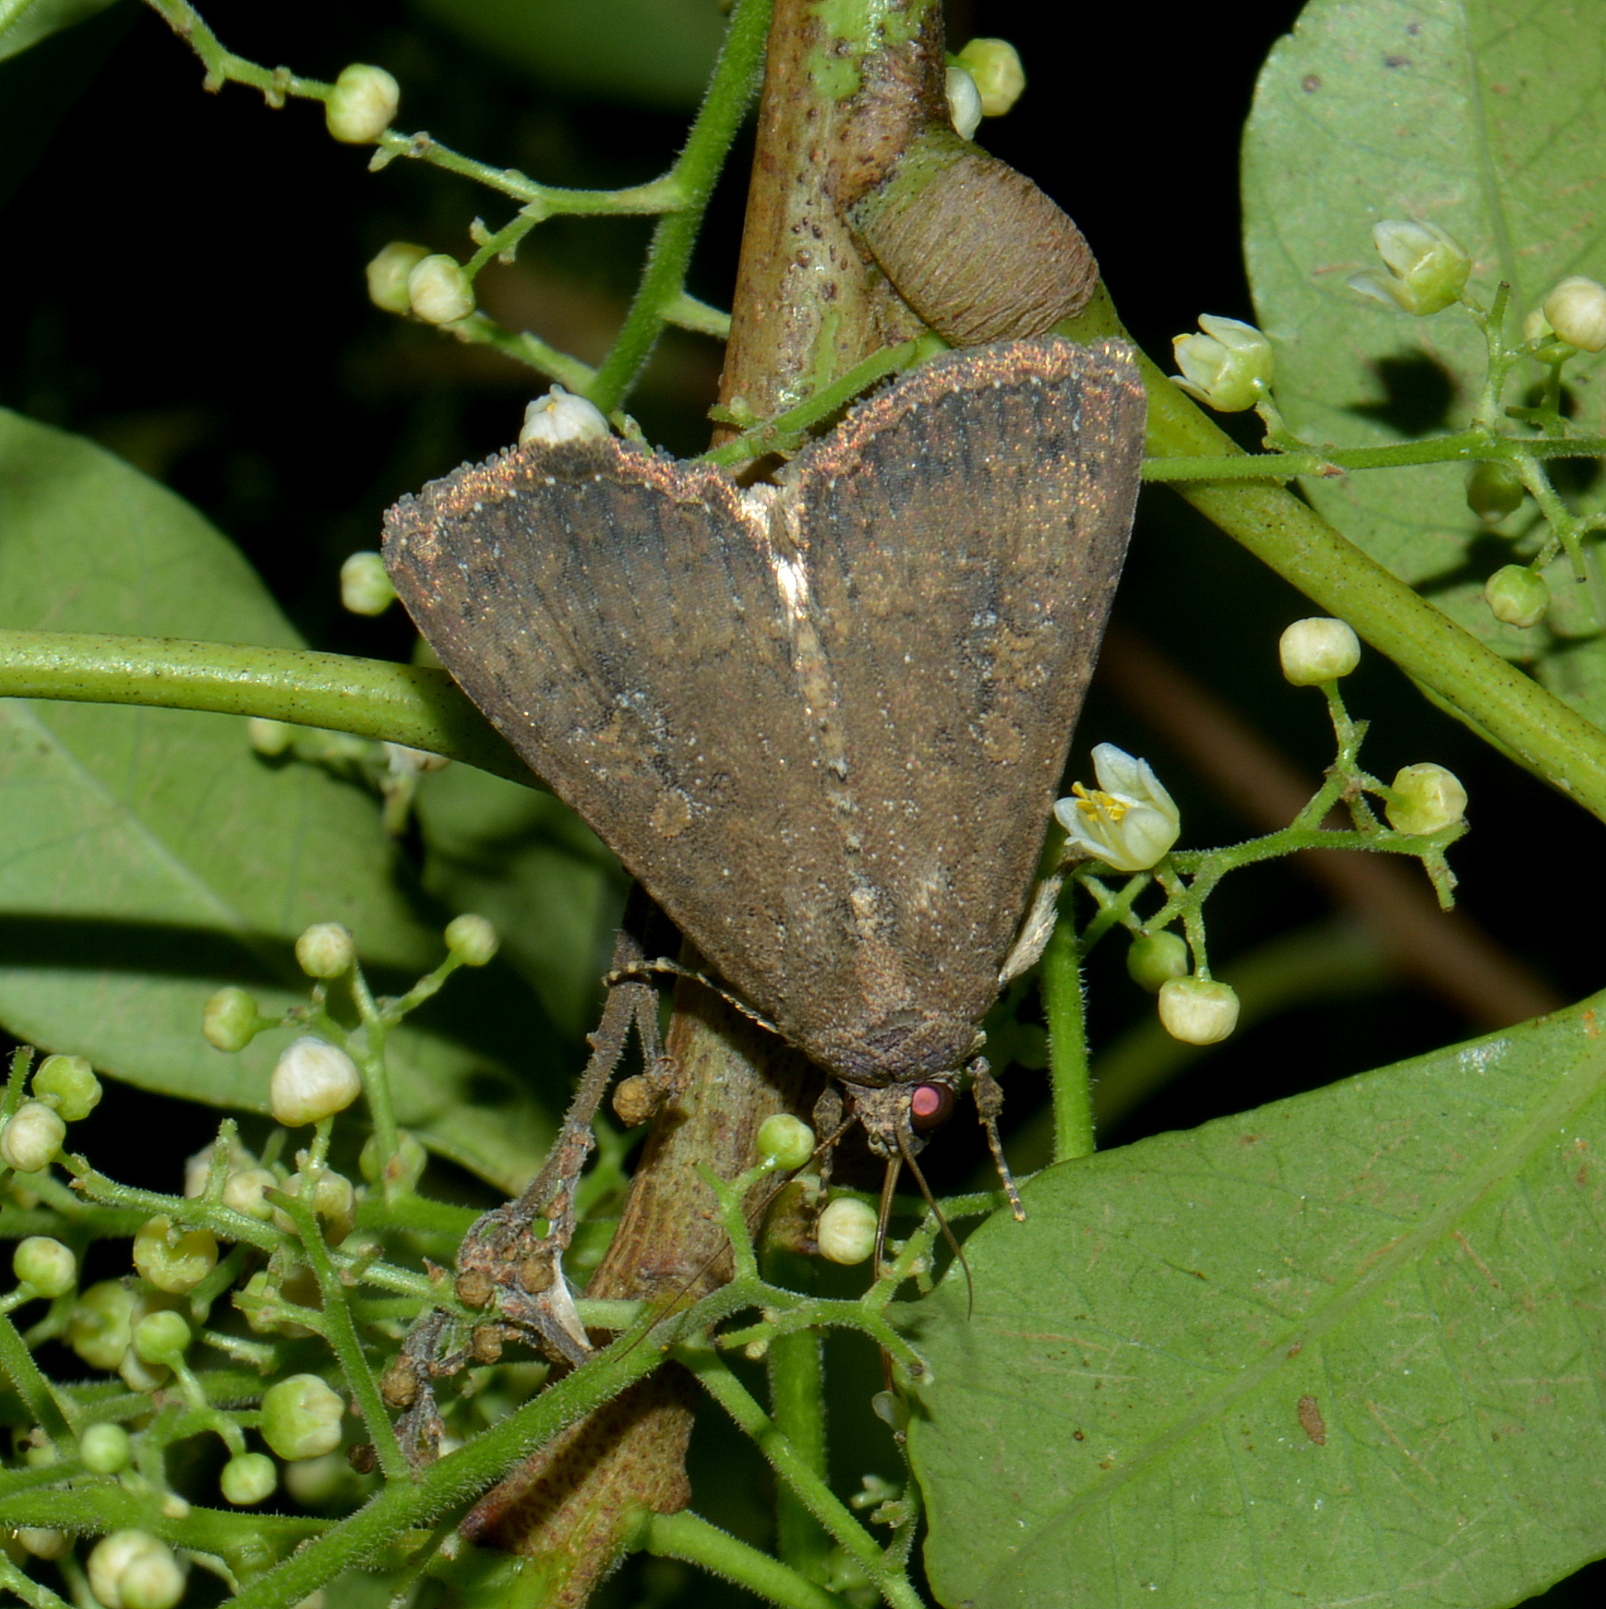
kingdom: Animalia
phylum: Arthropoda
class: Insecta
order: Lepidoptera
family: Noctuidae
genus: Peridroma
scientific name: Peridroma saucia
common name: Pearly underwing
